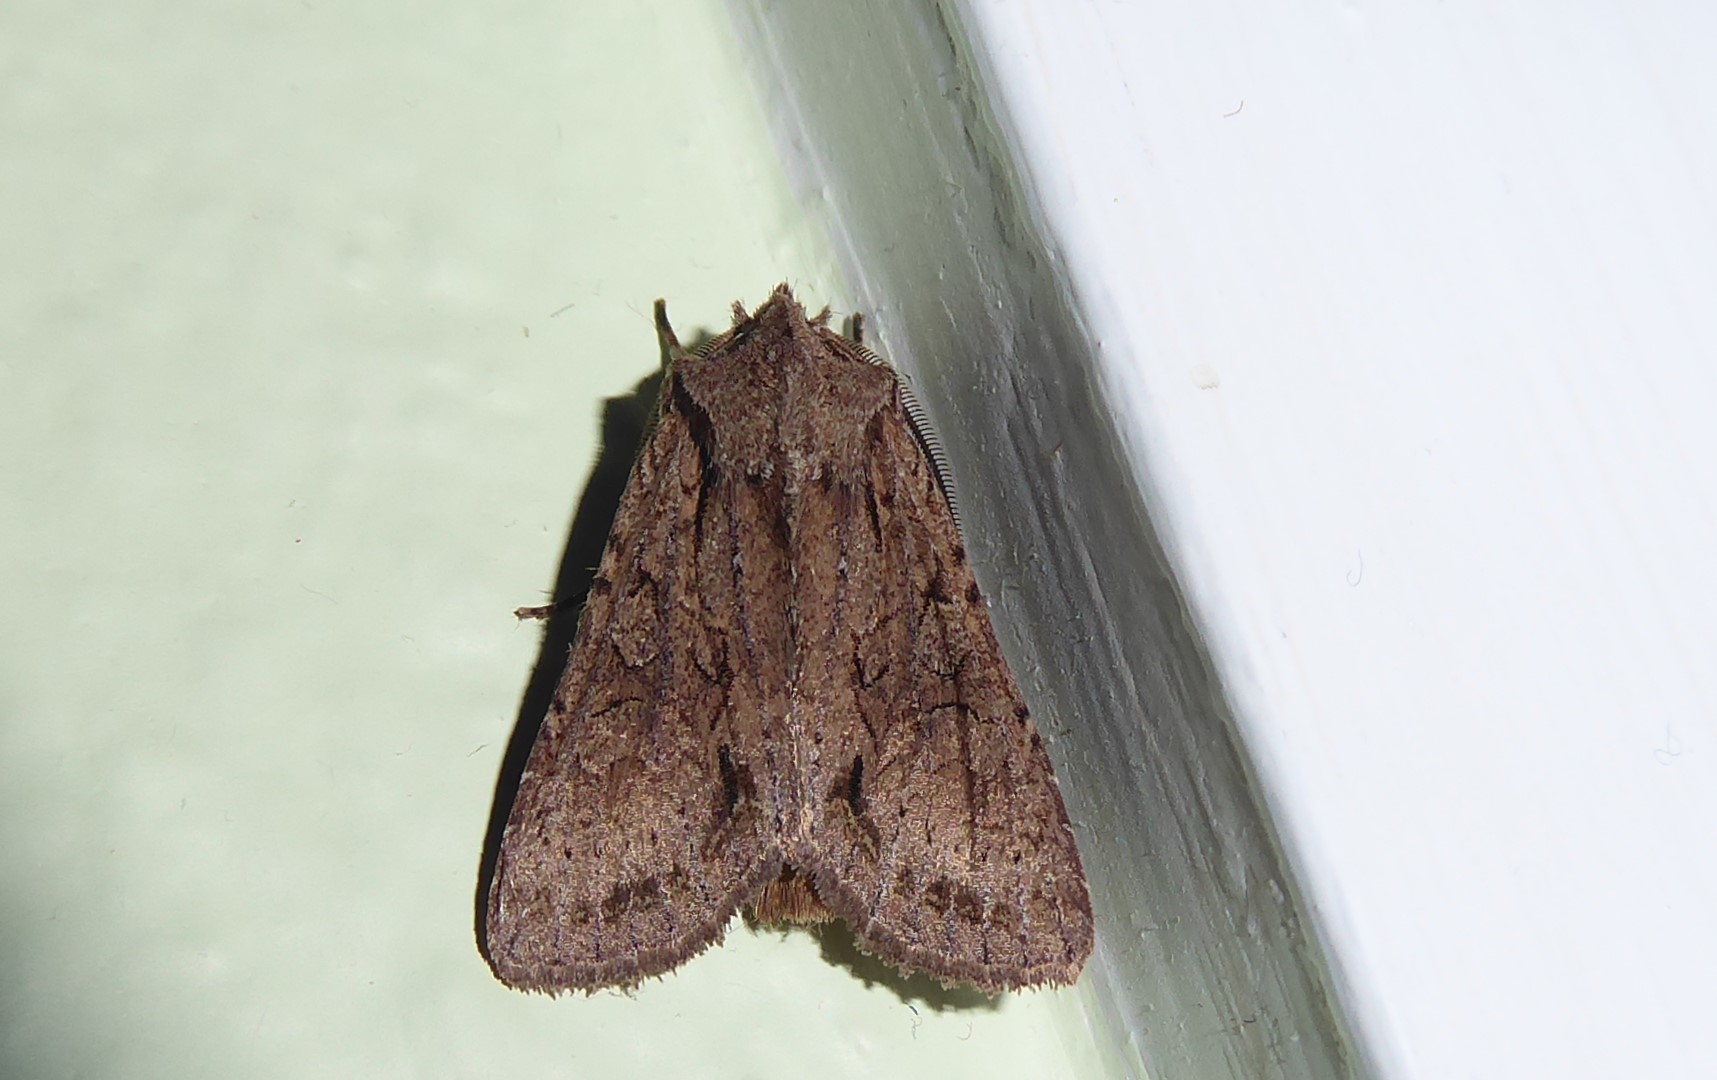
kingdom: Animalia
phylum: Arthropoda
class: Insecta
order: Lepidoptera
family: Noctuidae
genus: Ichneutica
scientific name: Ichneutica
